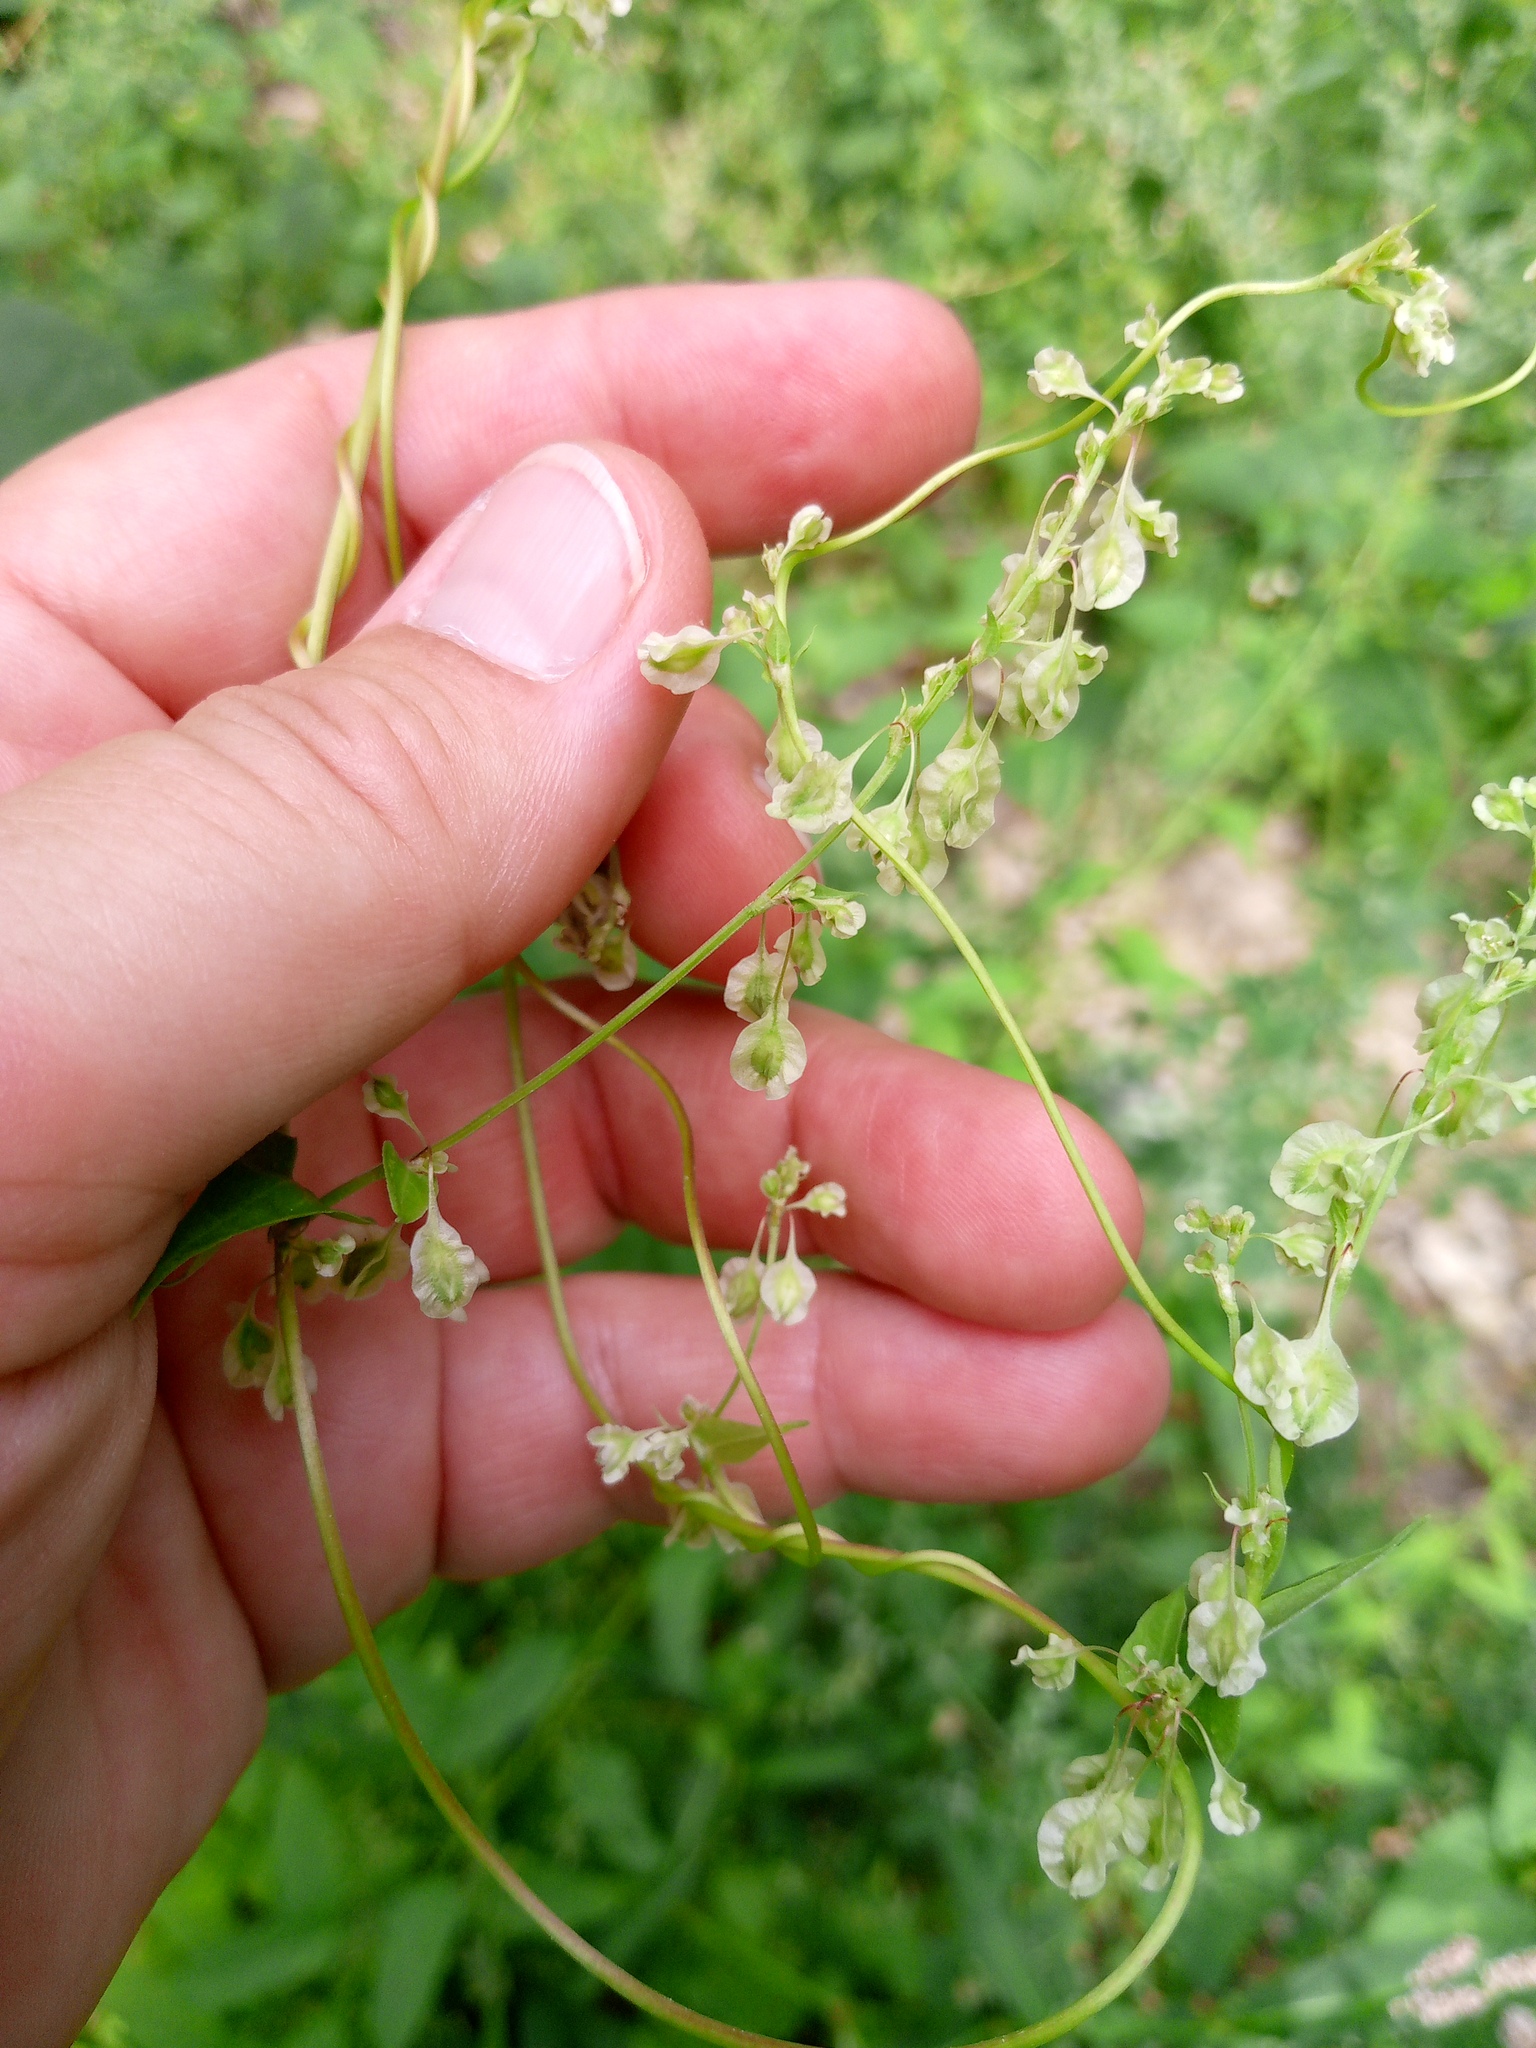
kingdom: Plantae
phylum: Tracheophyta
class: Magnoliopsida
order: Caryophyllales
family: Polygonaceae
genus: Fallopia
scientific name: Fallopia dumetorum
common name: Copse-bindweed
